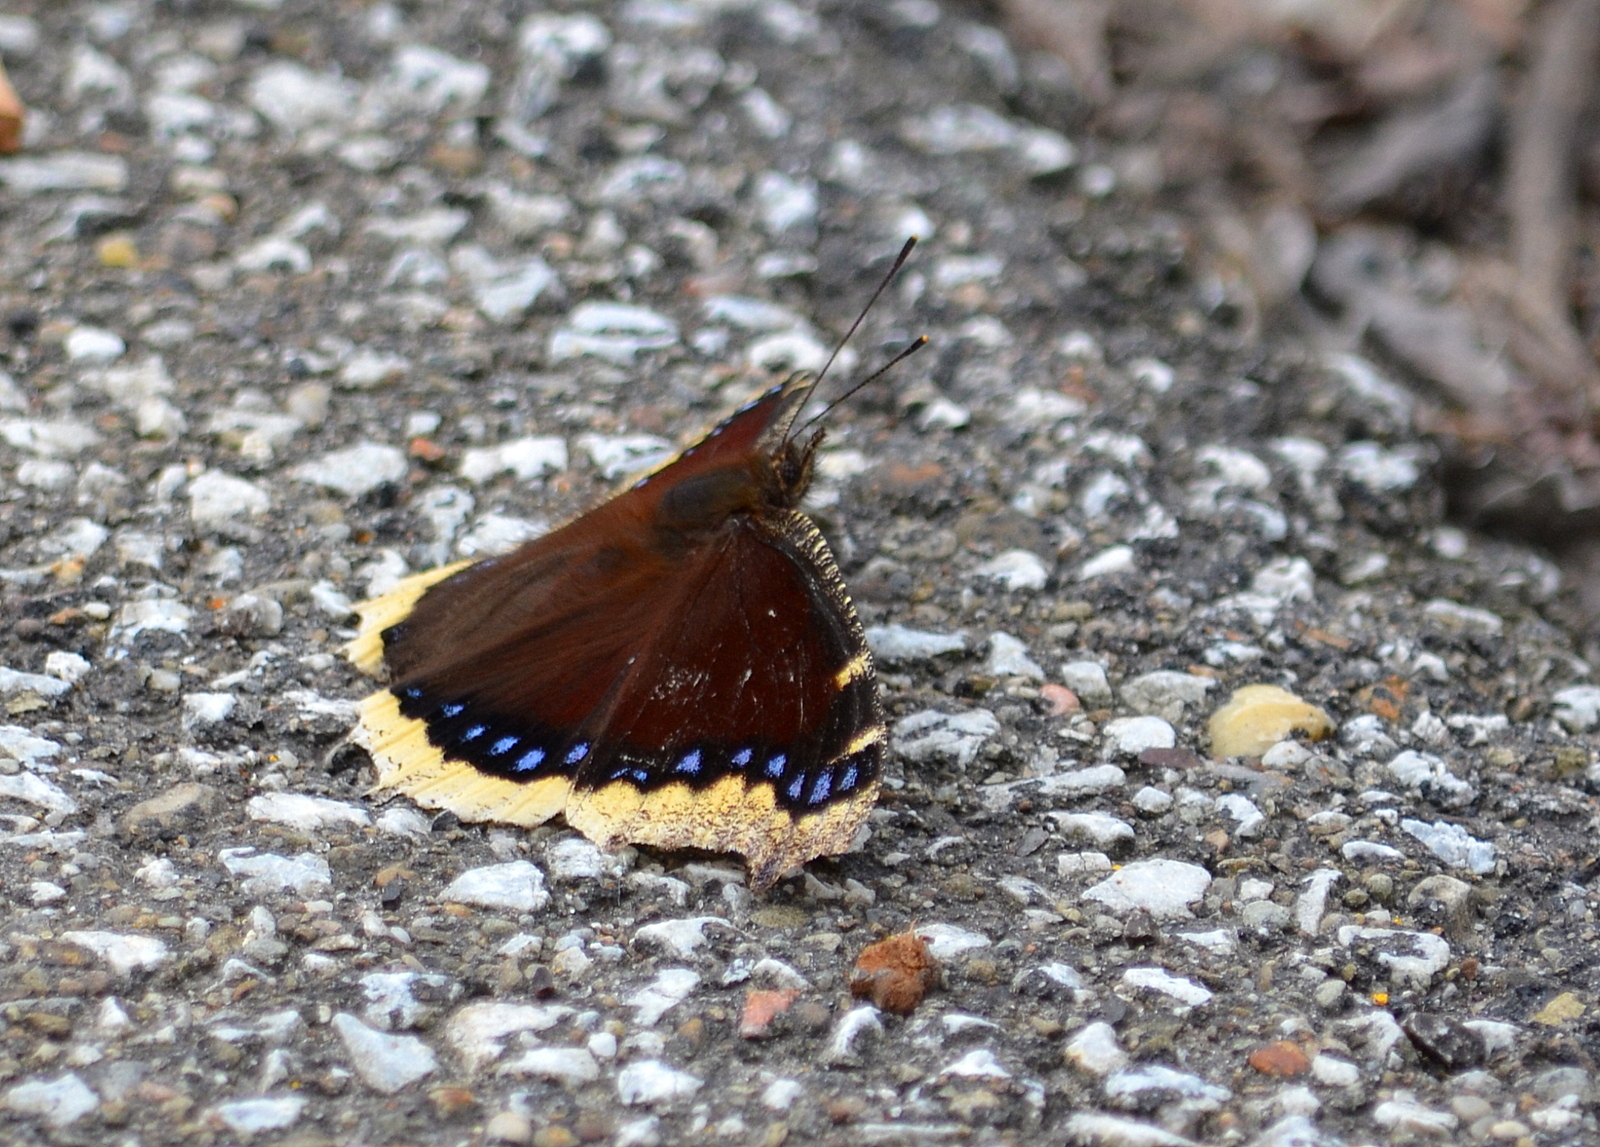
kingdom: Animalia
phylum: Arthropoda
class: Insecta
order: Lepidoptera
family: Nymphalidae
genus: Nymphalis
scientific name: Nymphalis antiopa
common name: Camberwell beauty
